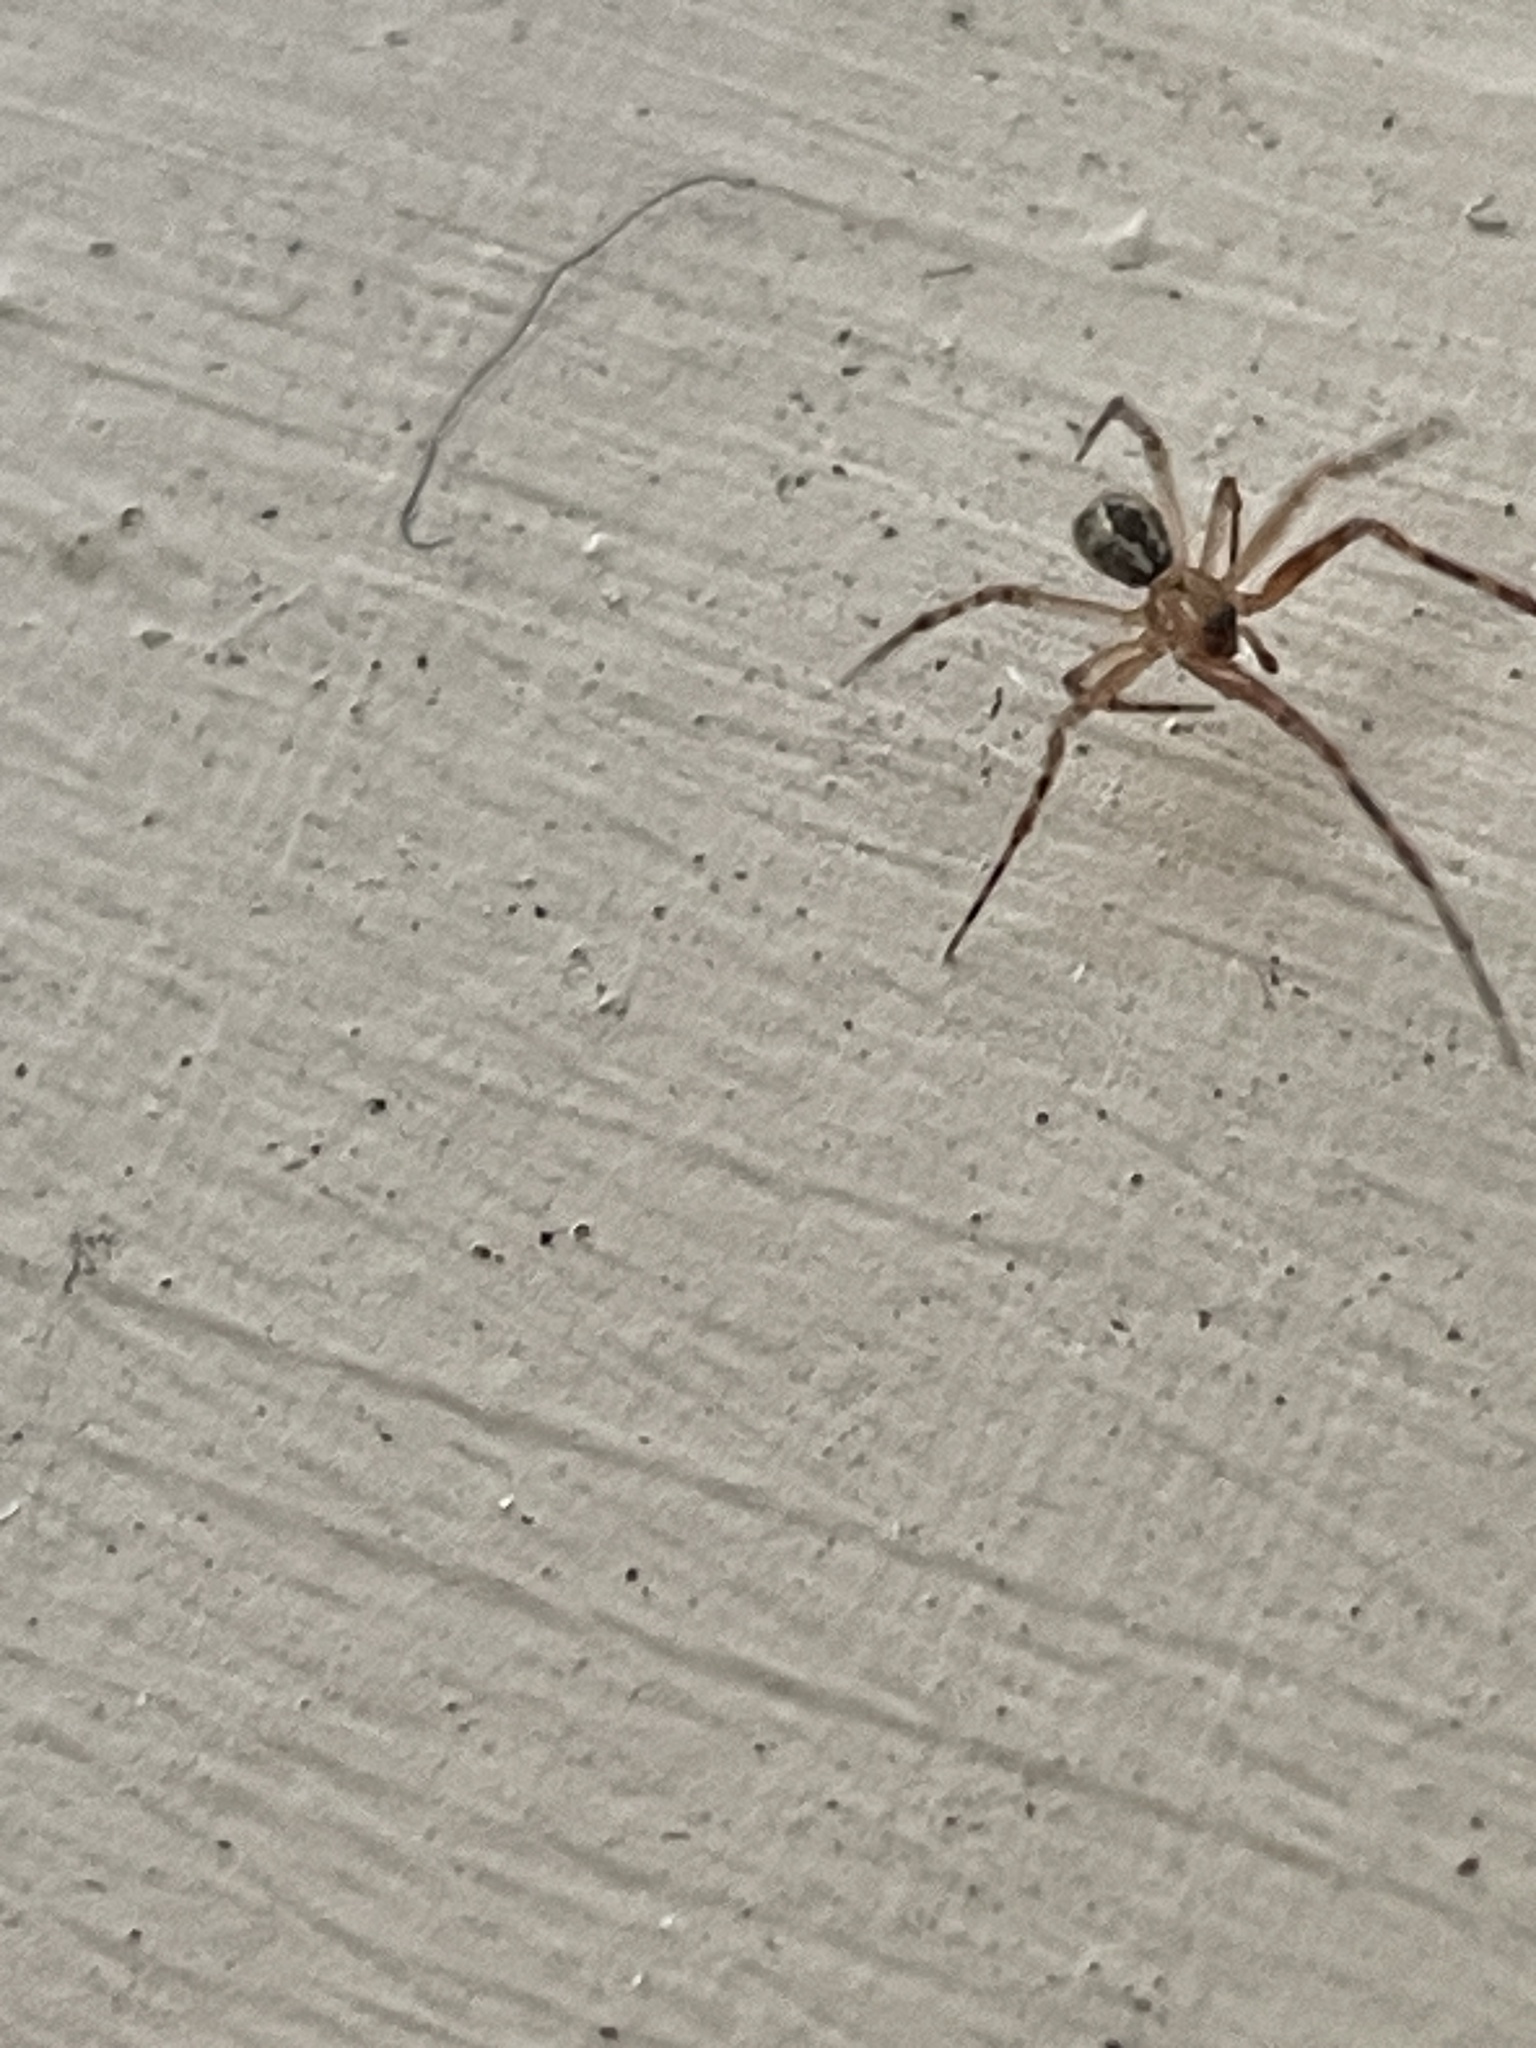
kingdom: Animalia
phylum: Arthropoda
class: Arachnida
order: Araneae
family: Theridiidae
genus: Cryptachaea
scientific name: Cryptachaea veruculata
